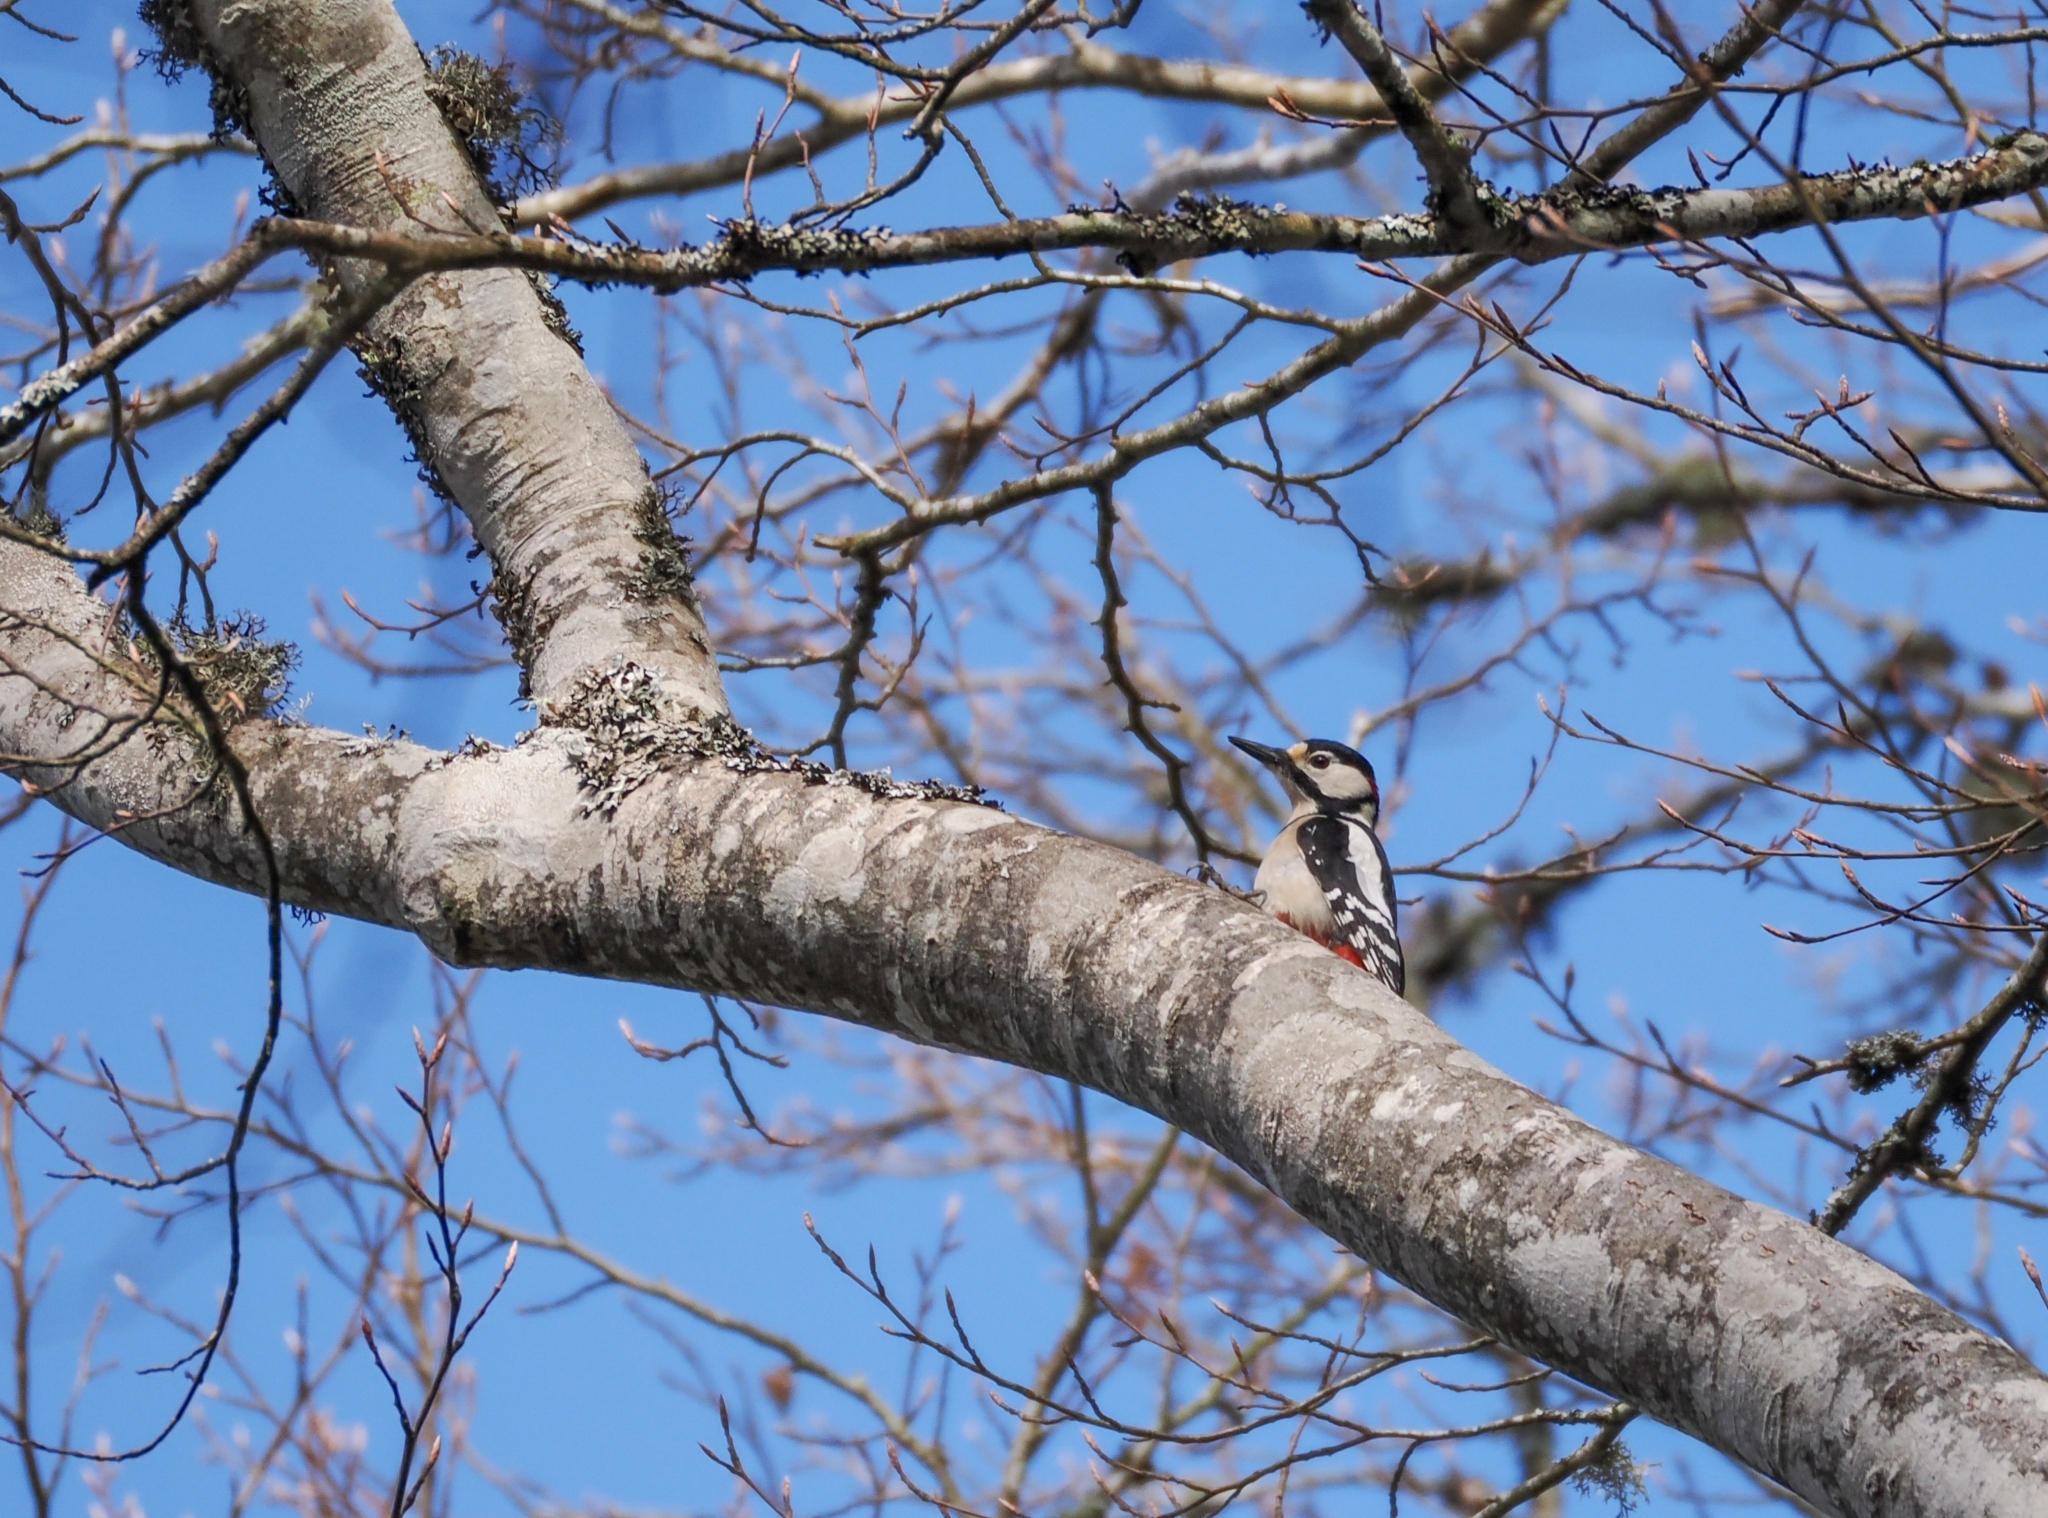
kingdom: Animalia
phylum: Chordata
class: Aves
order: Piciformes
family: Picidae
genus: Dendrocopos
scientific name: Dendrocopos major
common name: Great spotted woodpecker
